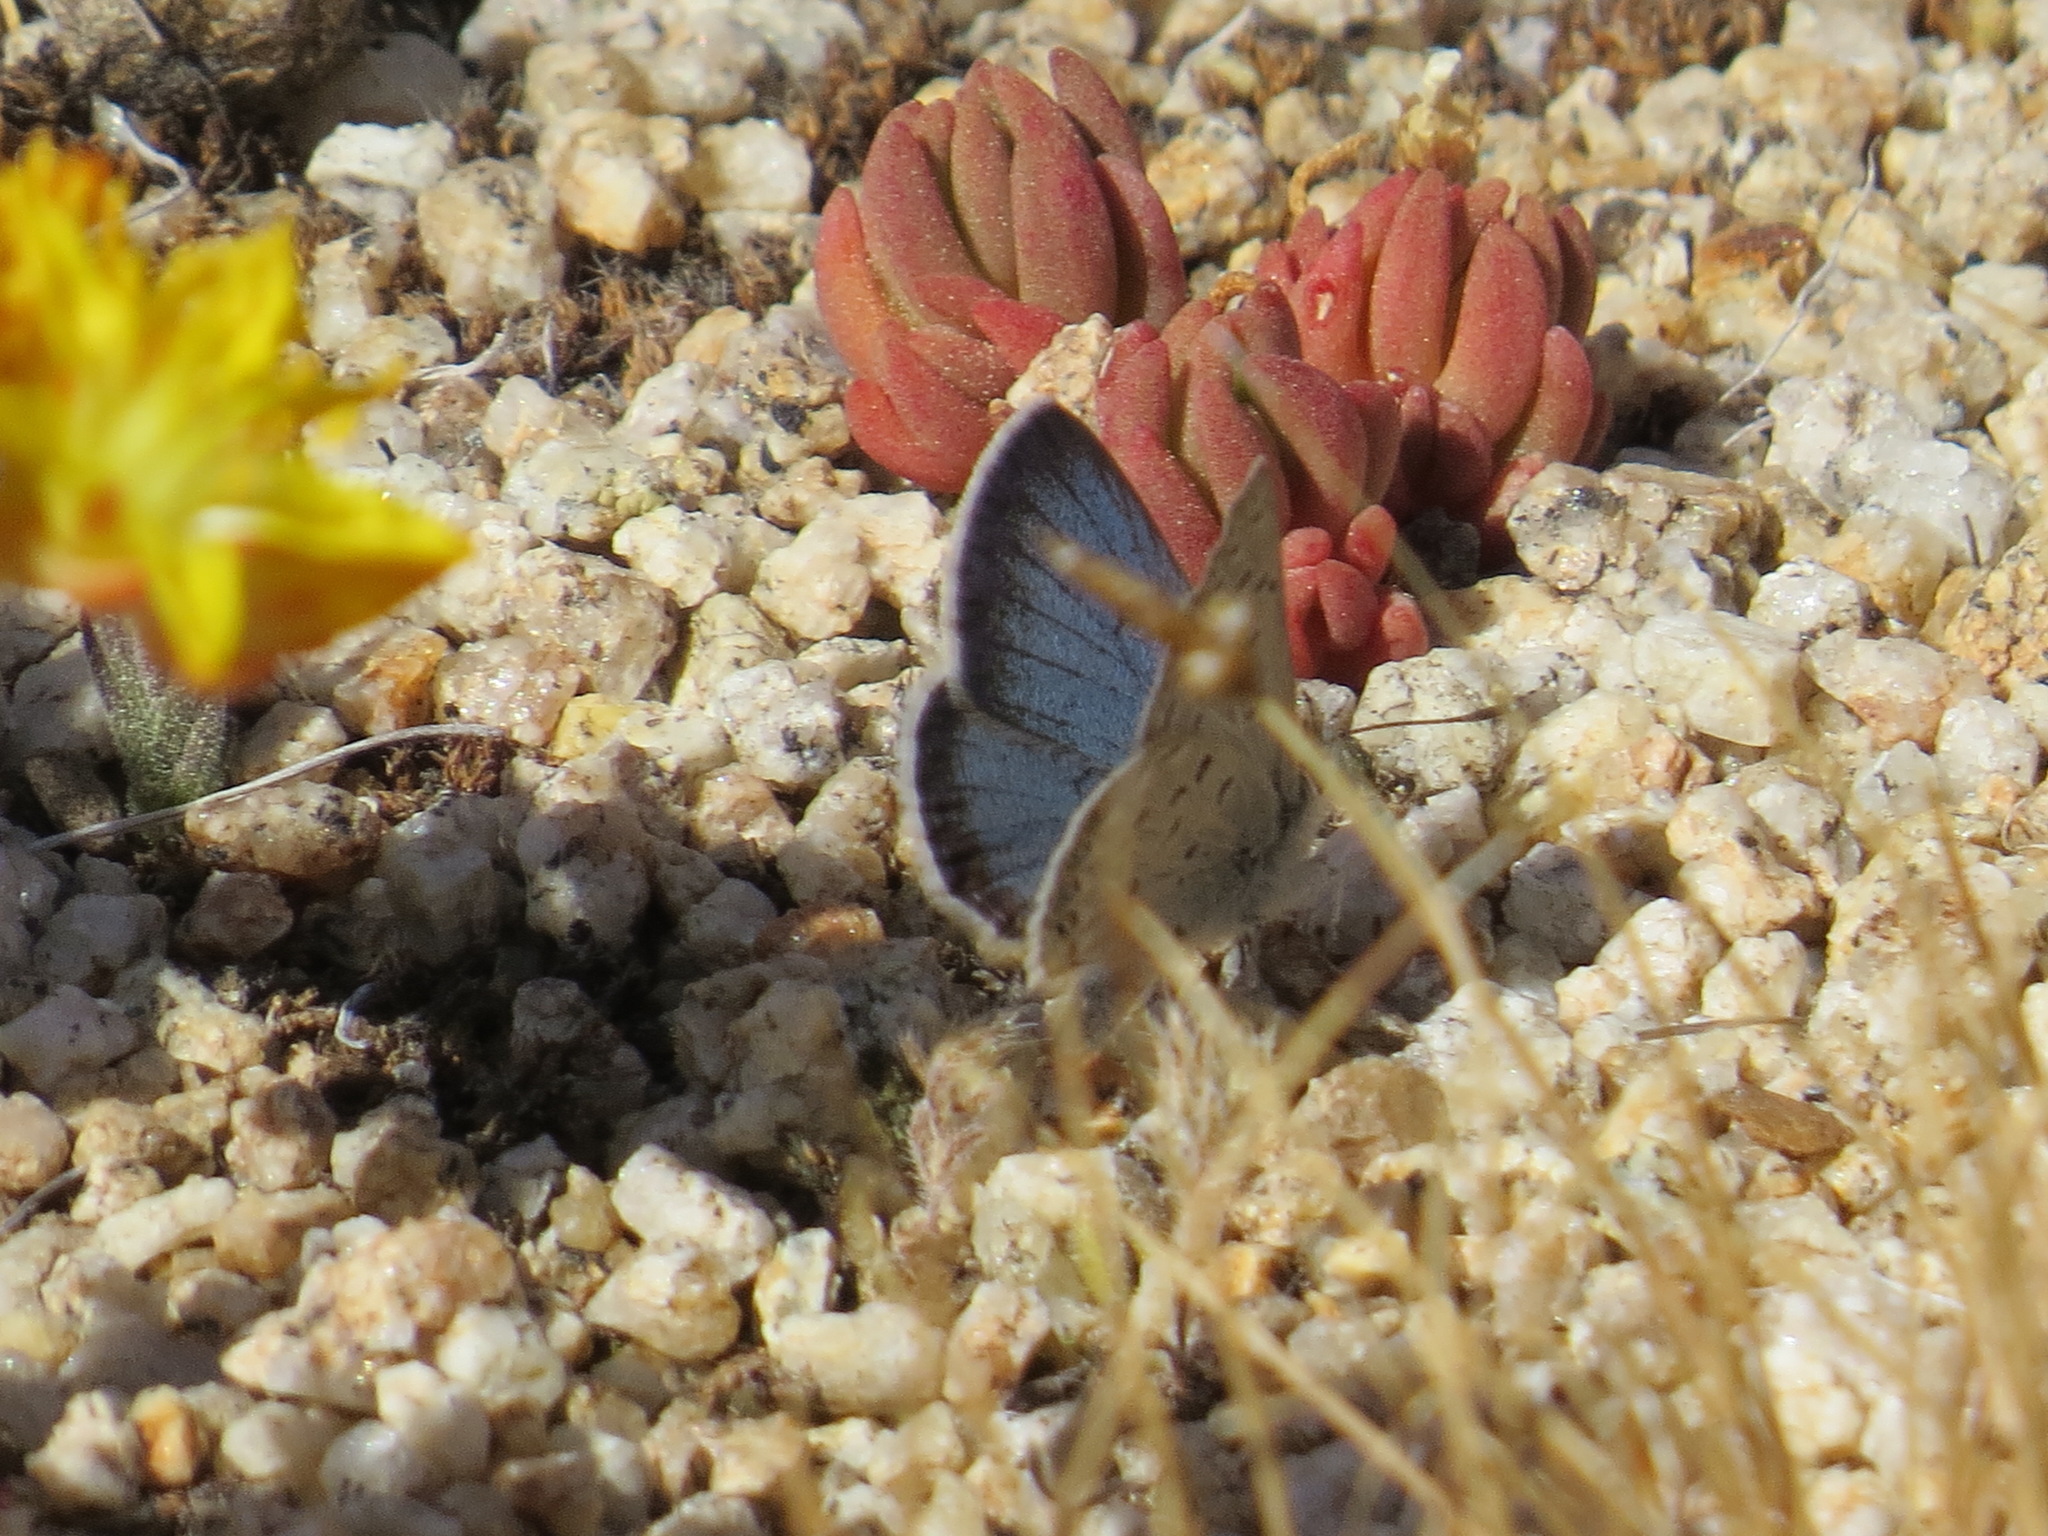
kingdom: Animalia
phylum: Arthropoda
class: Insecta
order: Lepidoptera
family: Lycaenidae
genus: Icaricia
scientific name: Icaricia shasta
